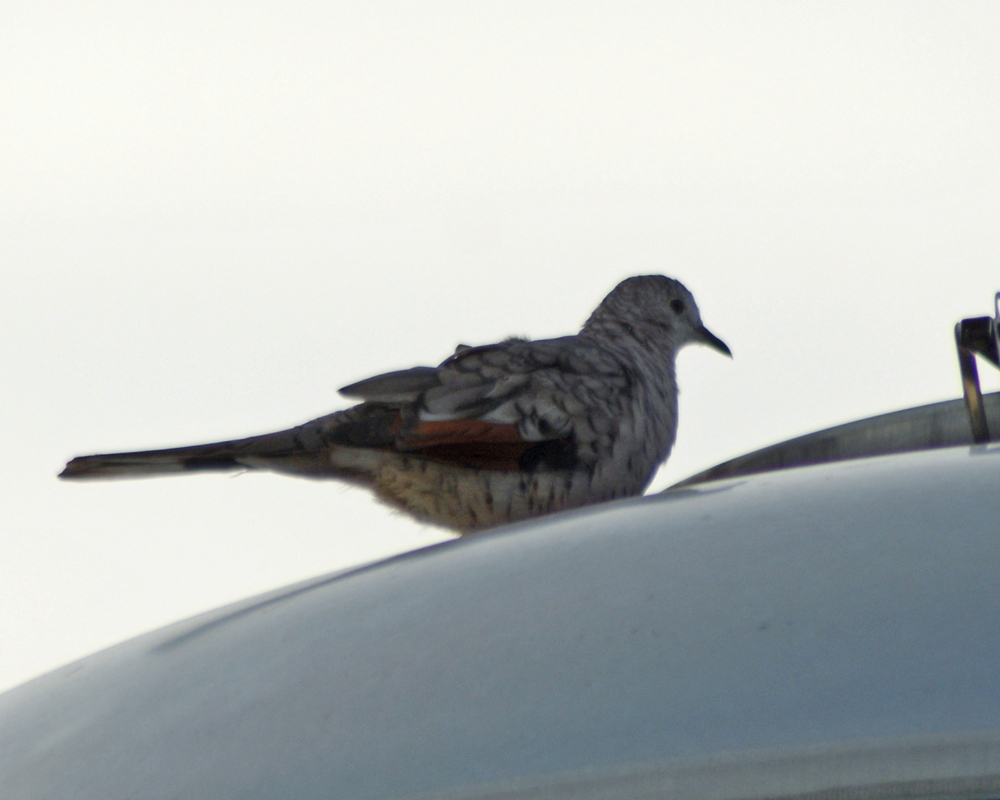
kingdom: Animalia
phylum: Chordata
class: Aves
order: Columbiformes
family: Columbidae
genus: Columbina
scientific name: Columbina inca
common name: Inca dove
